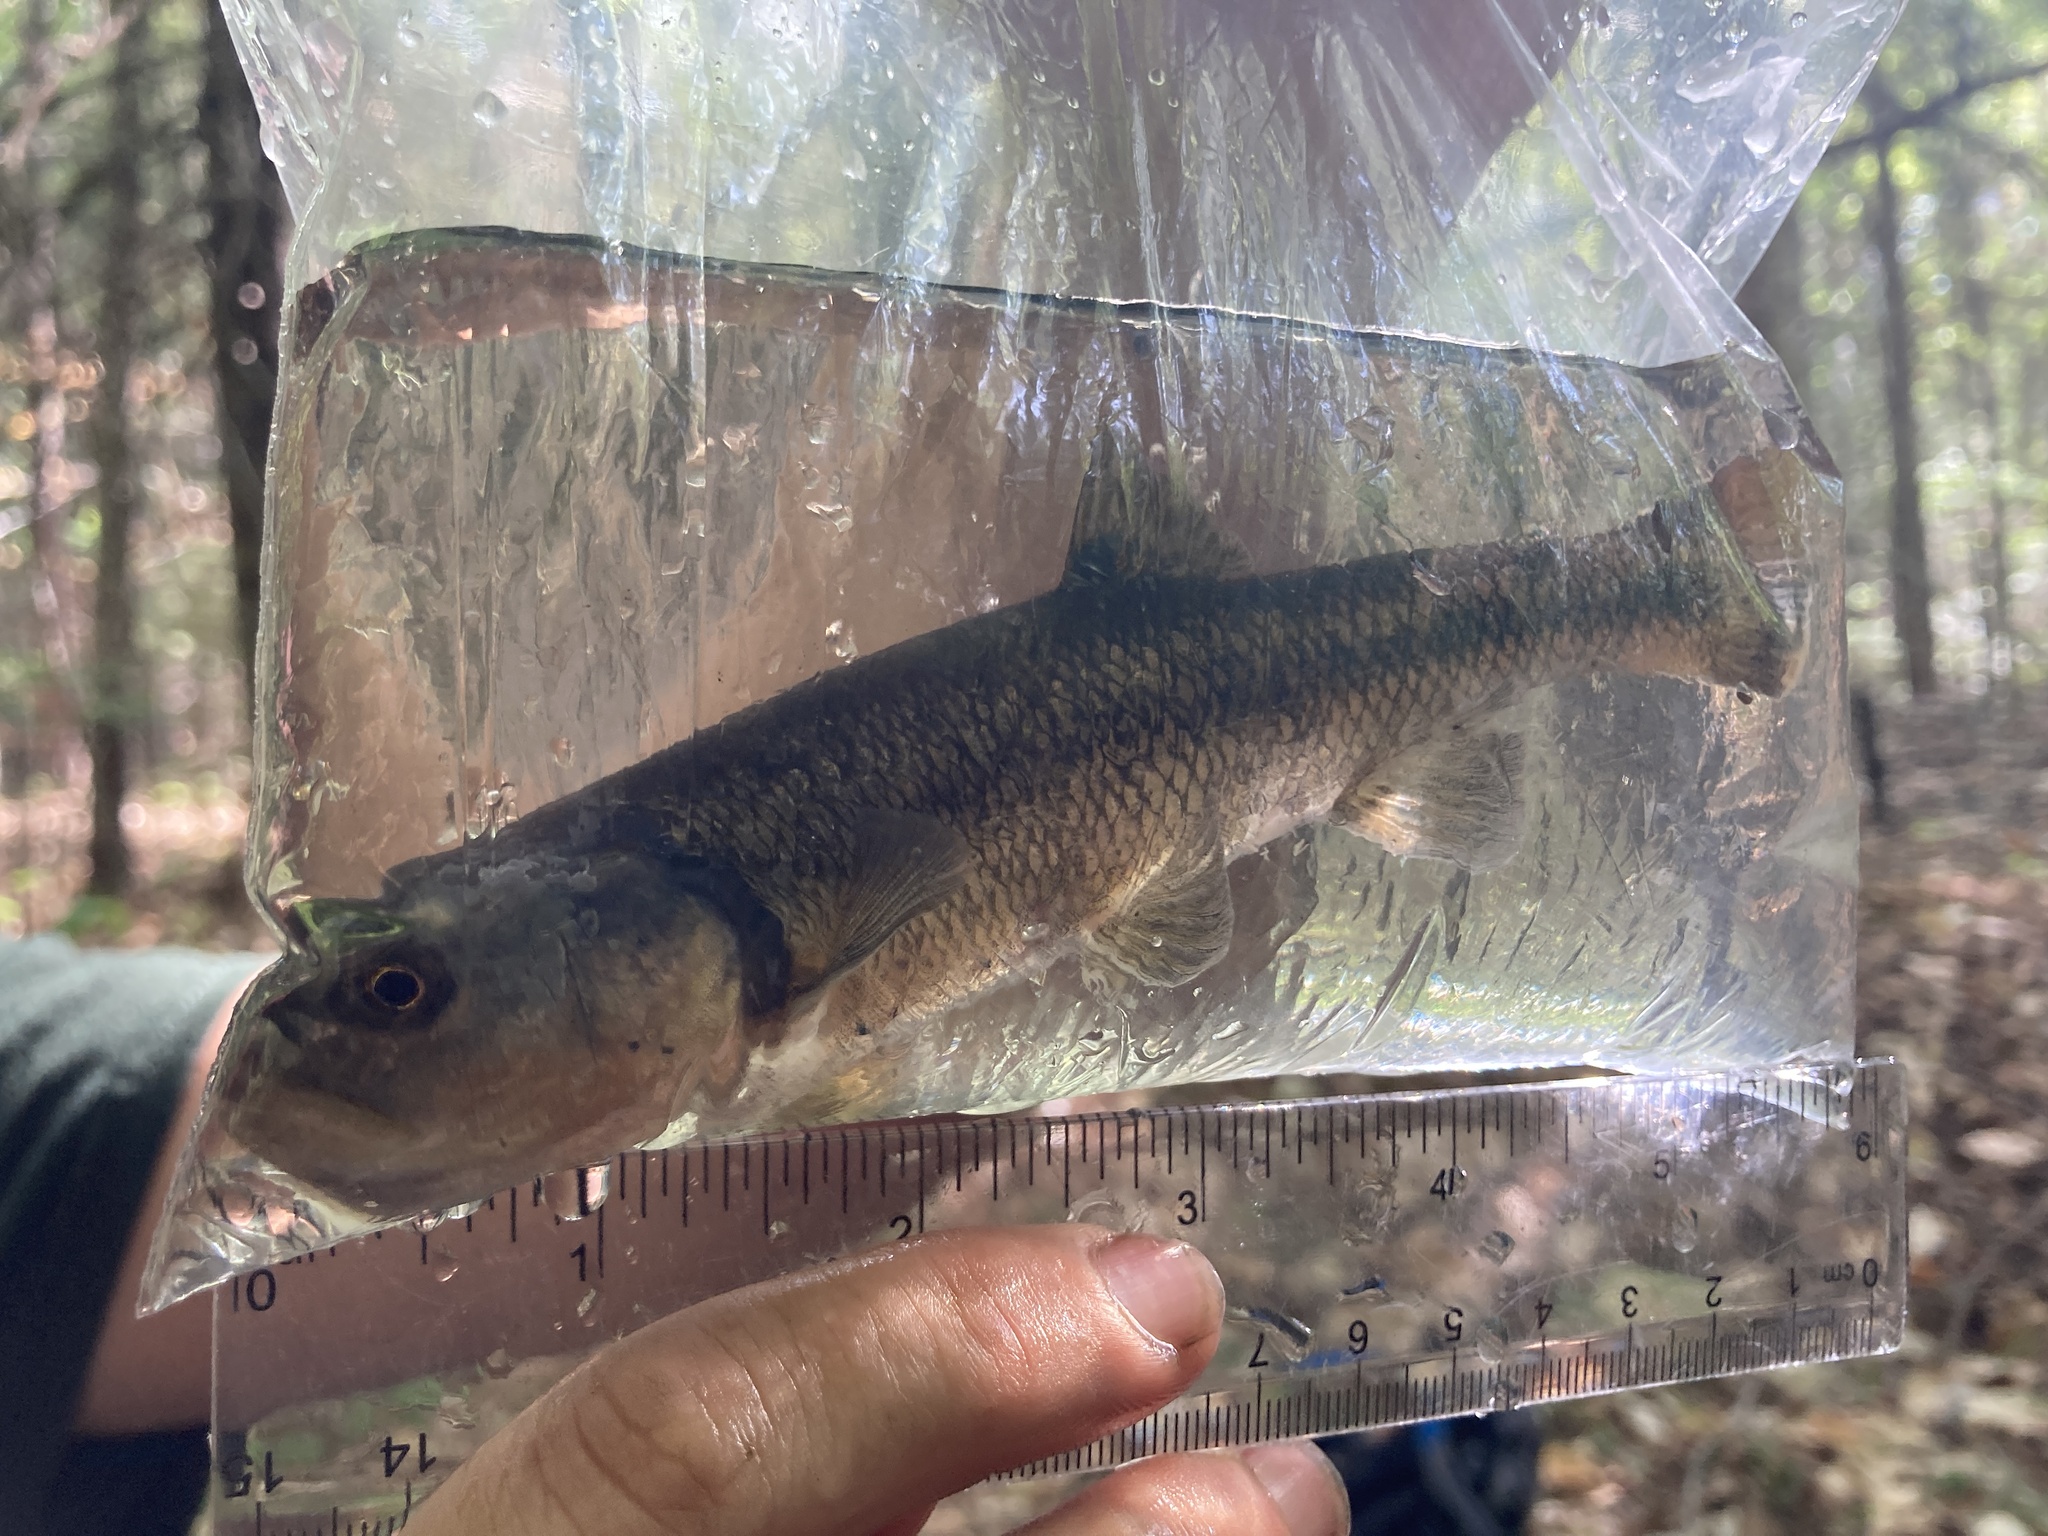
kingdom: Animalia
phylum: Chordata
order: Cypriniformes
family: Cyprinidae
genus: Semotilus
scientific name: Semotilus atromaculatus
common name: Creek chub
